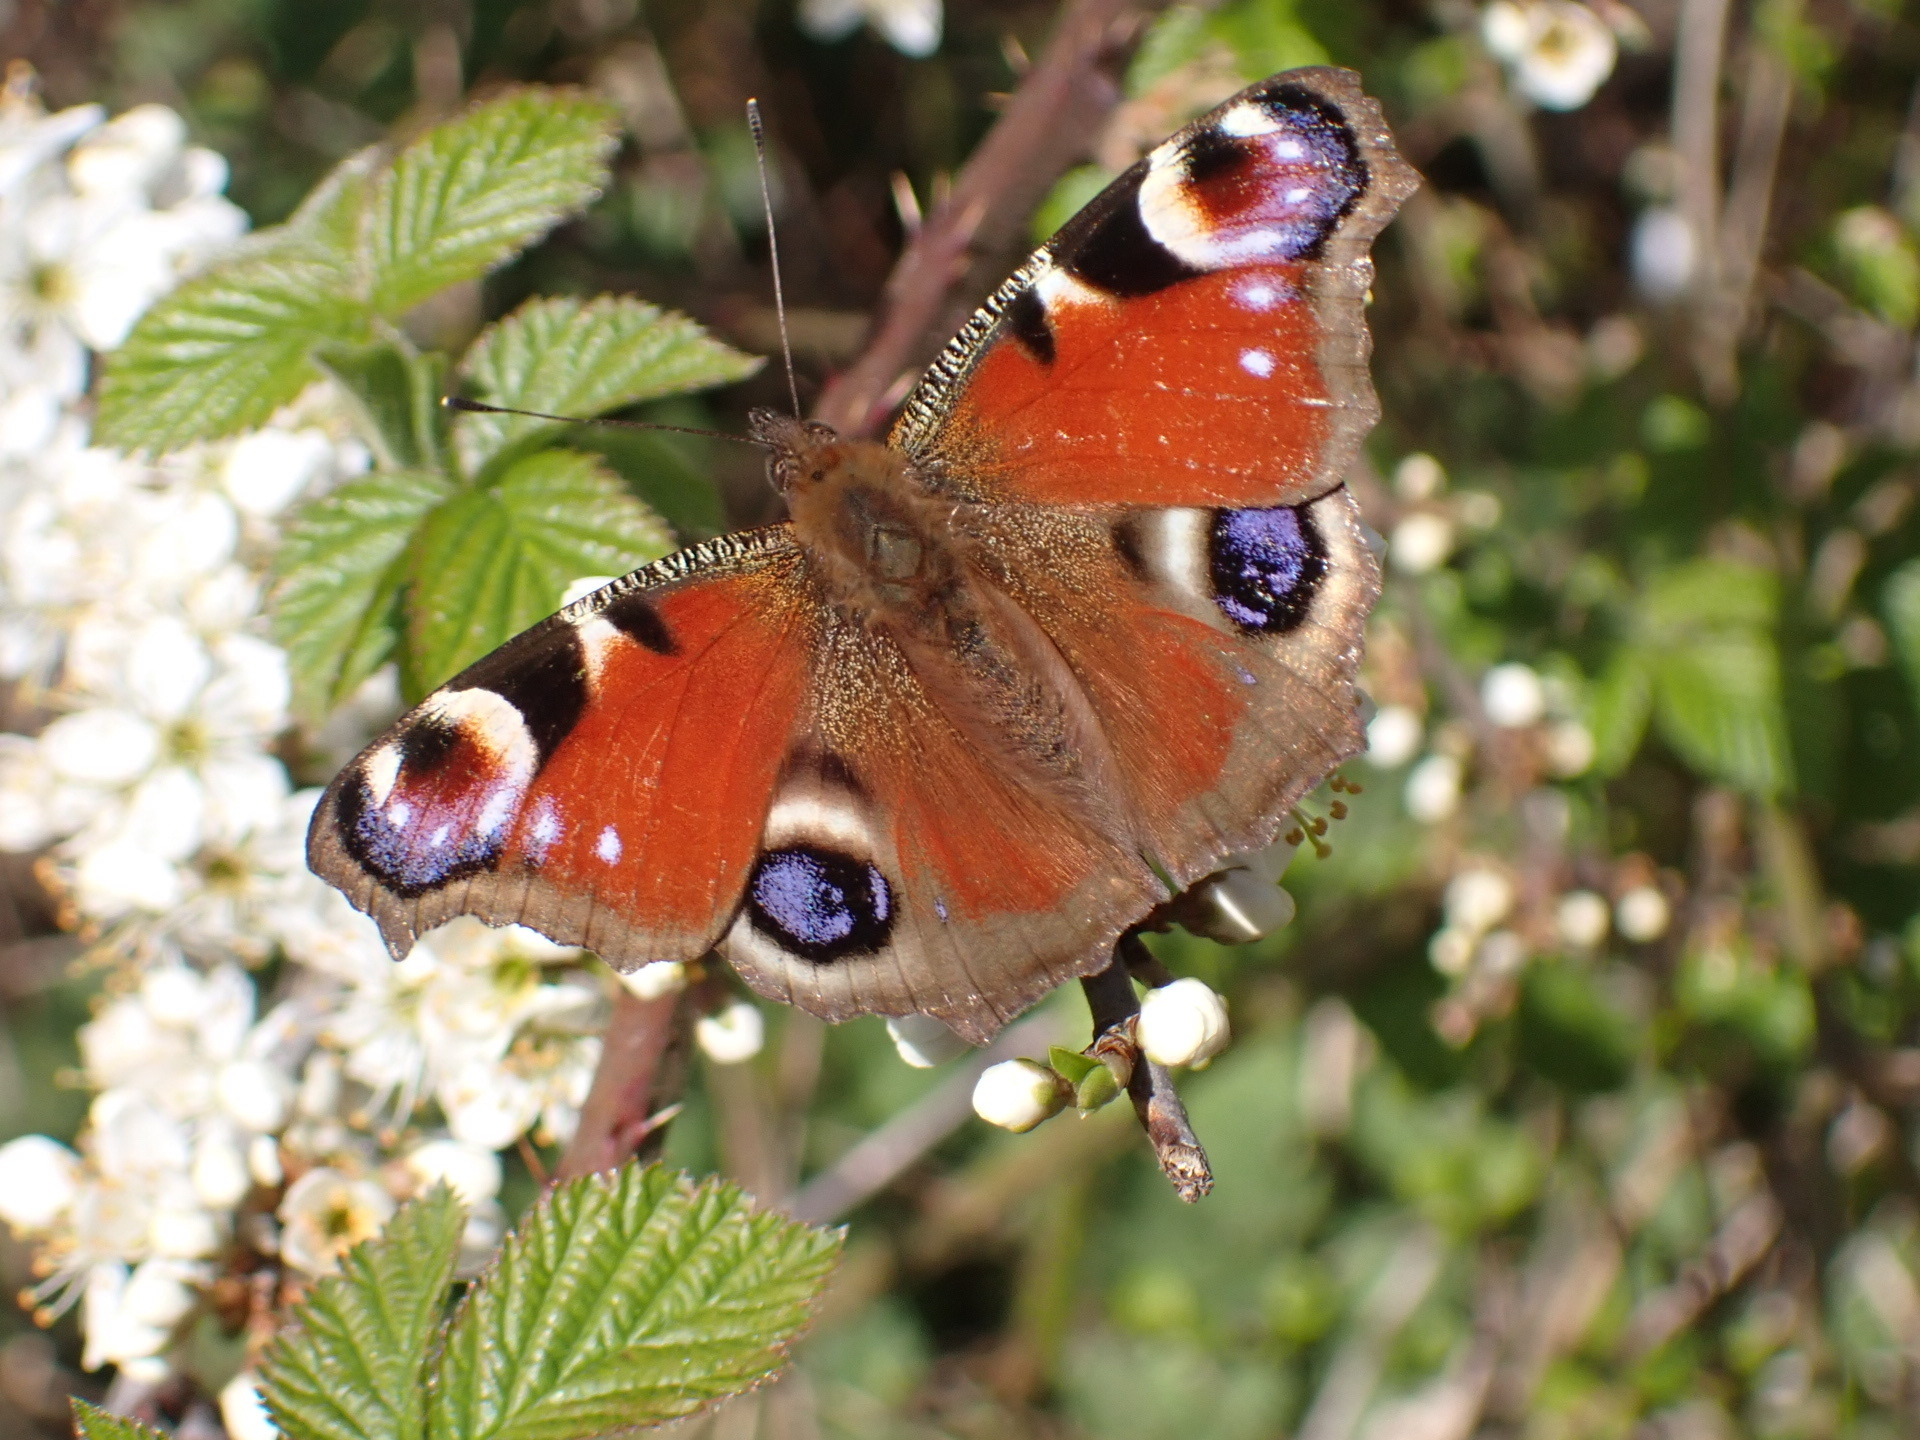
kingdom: Animalia
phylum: Arthropoda
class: Insecta
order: Lepidoptera
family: Nymphalidae
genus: Aglais
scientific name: Aglais io
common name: Peacock
